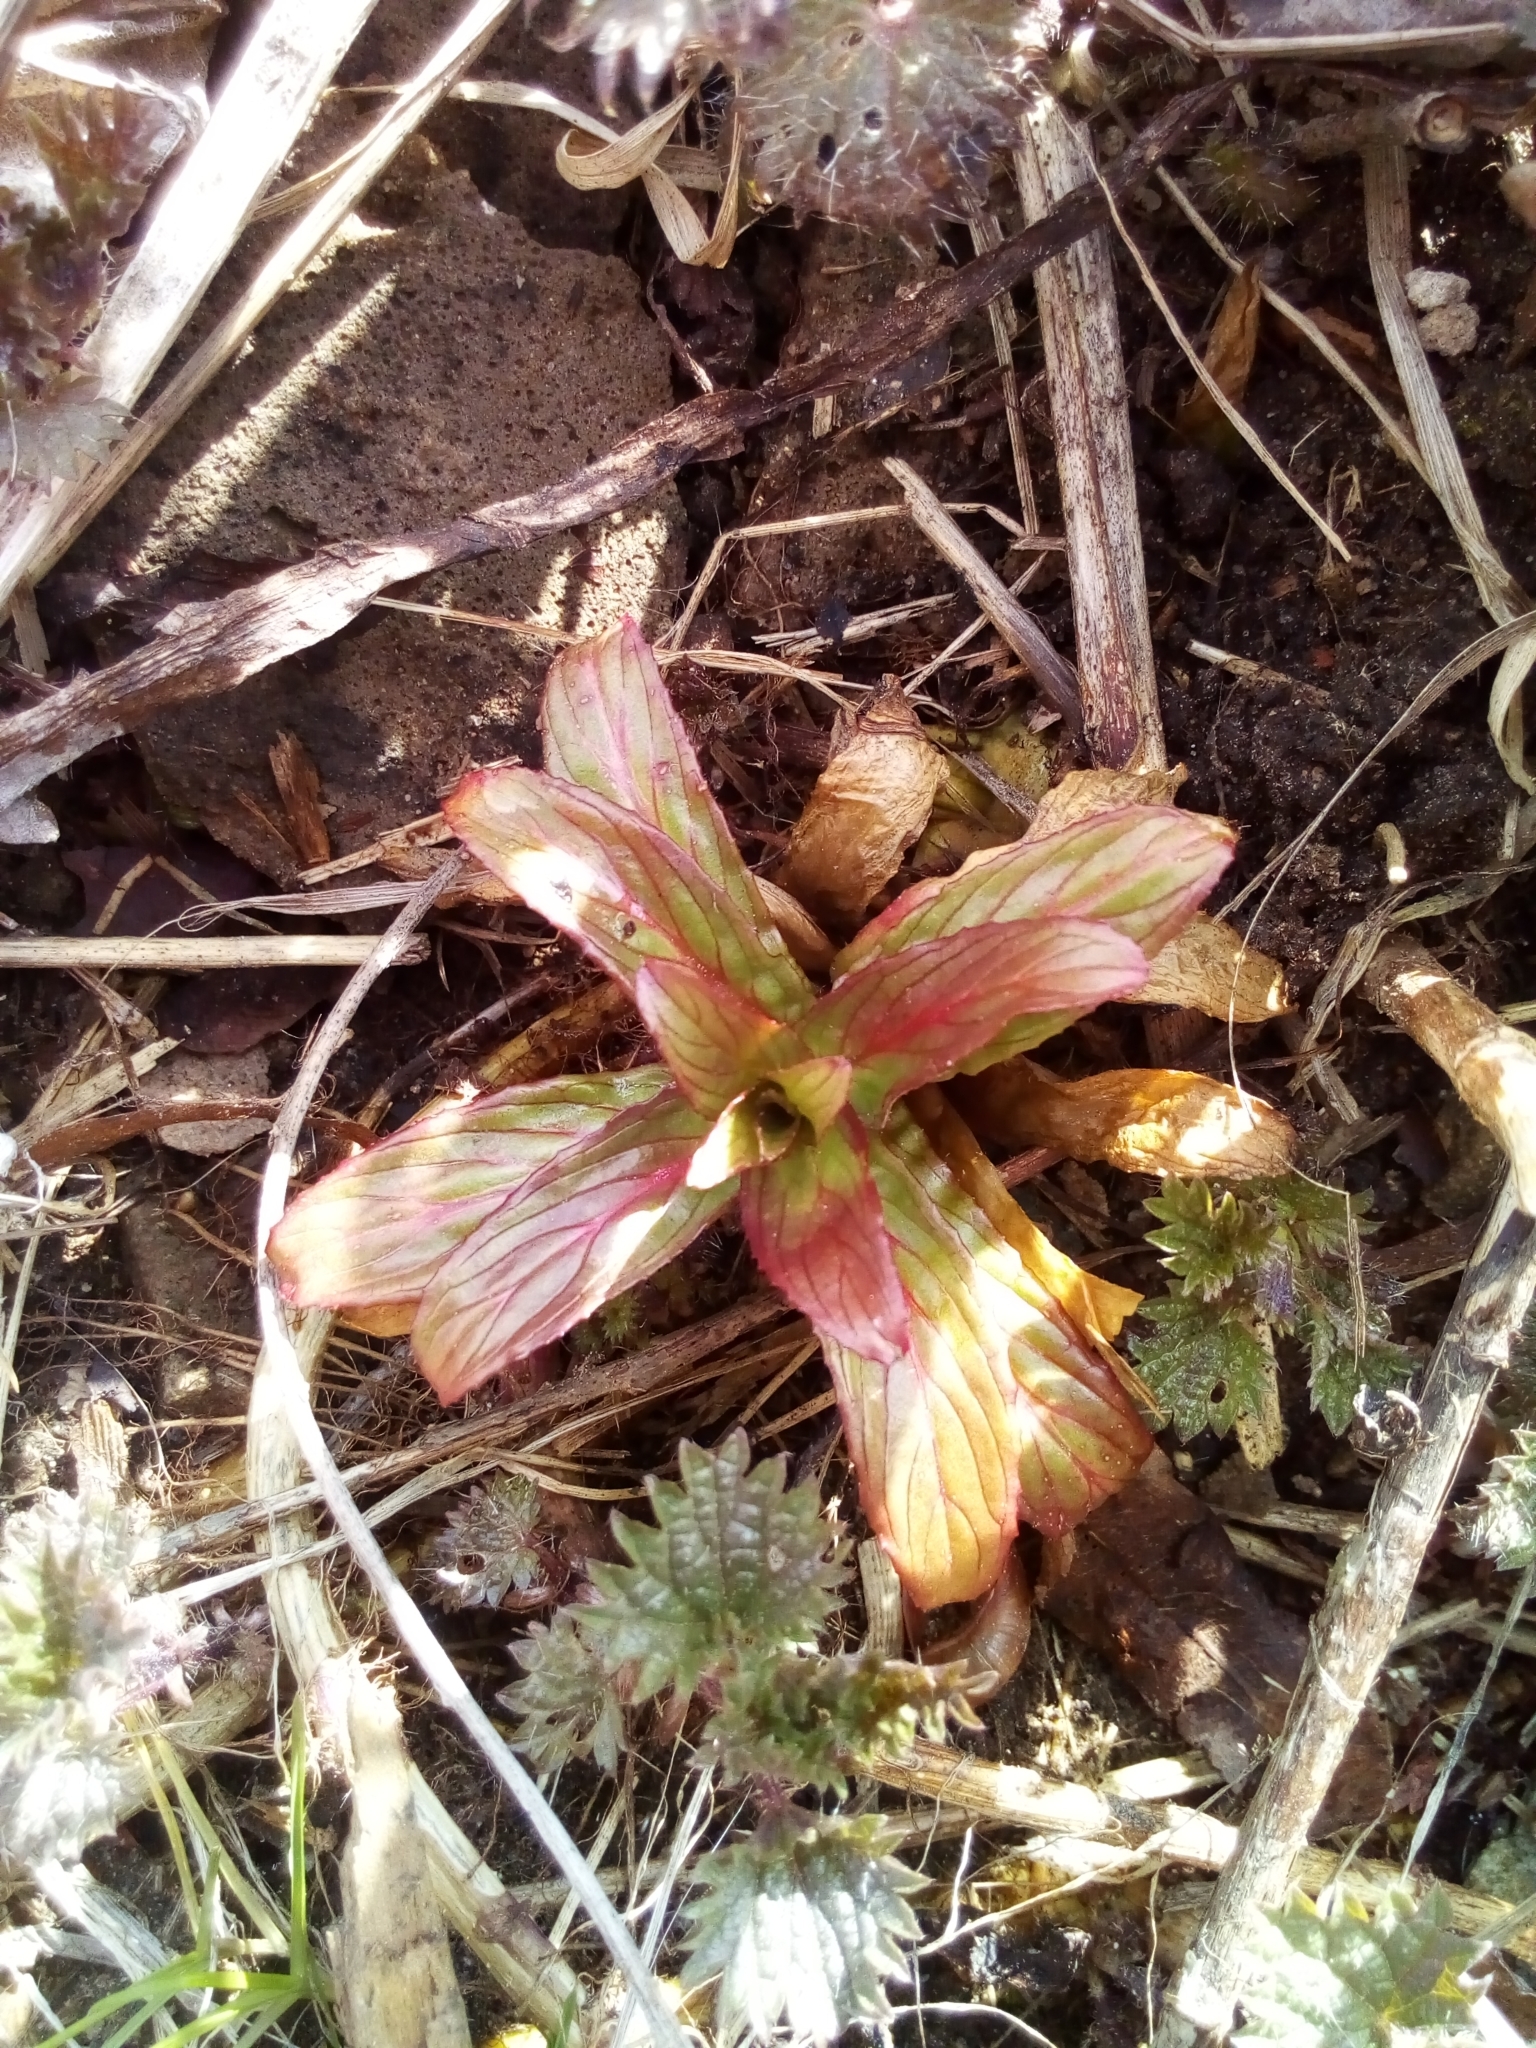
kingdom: Plantae
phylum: Tracheophyta
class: Magnoliopsida
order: Myrtales
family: Onagraceae
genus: Epilobium
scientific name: Epilobium
